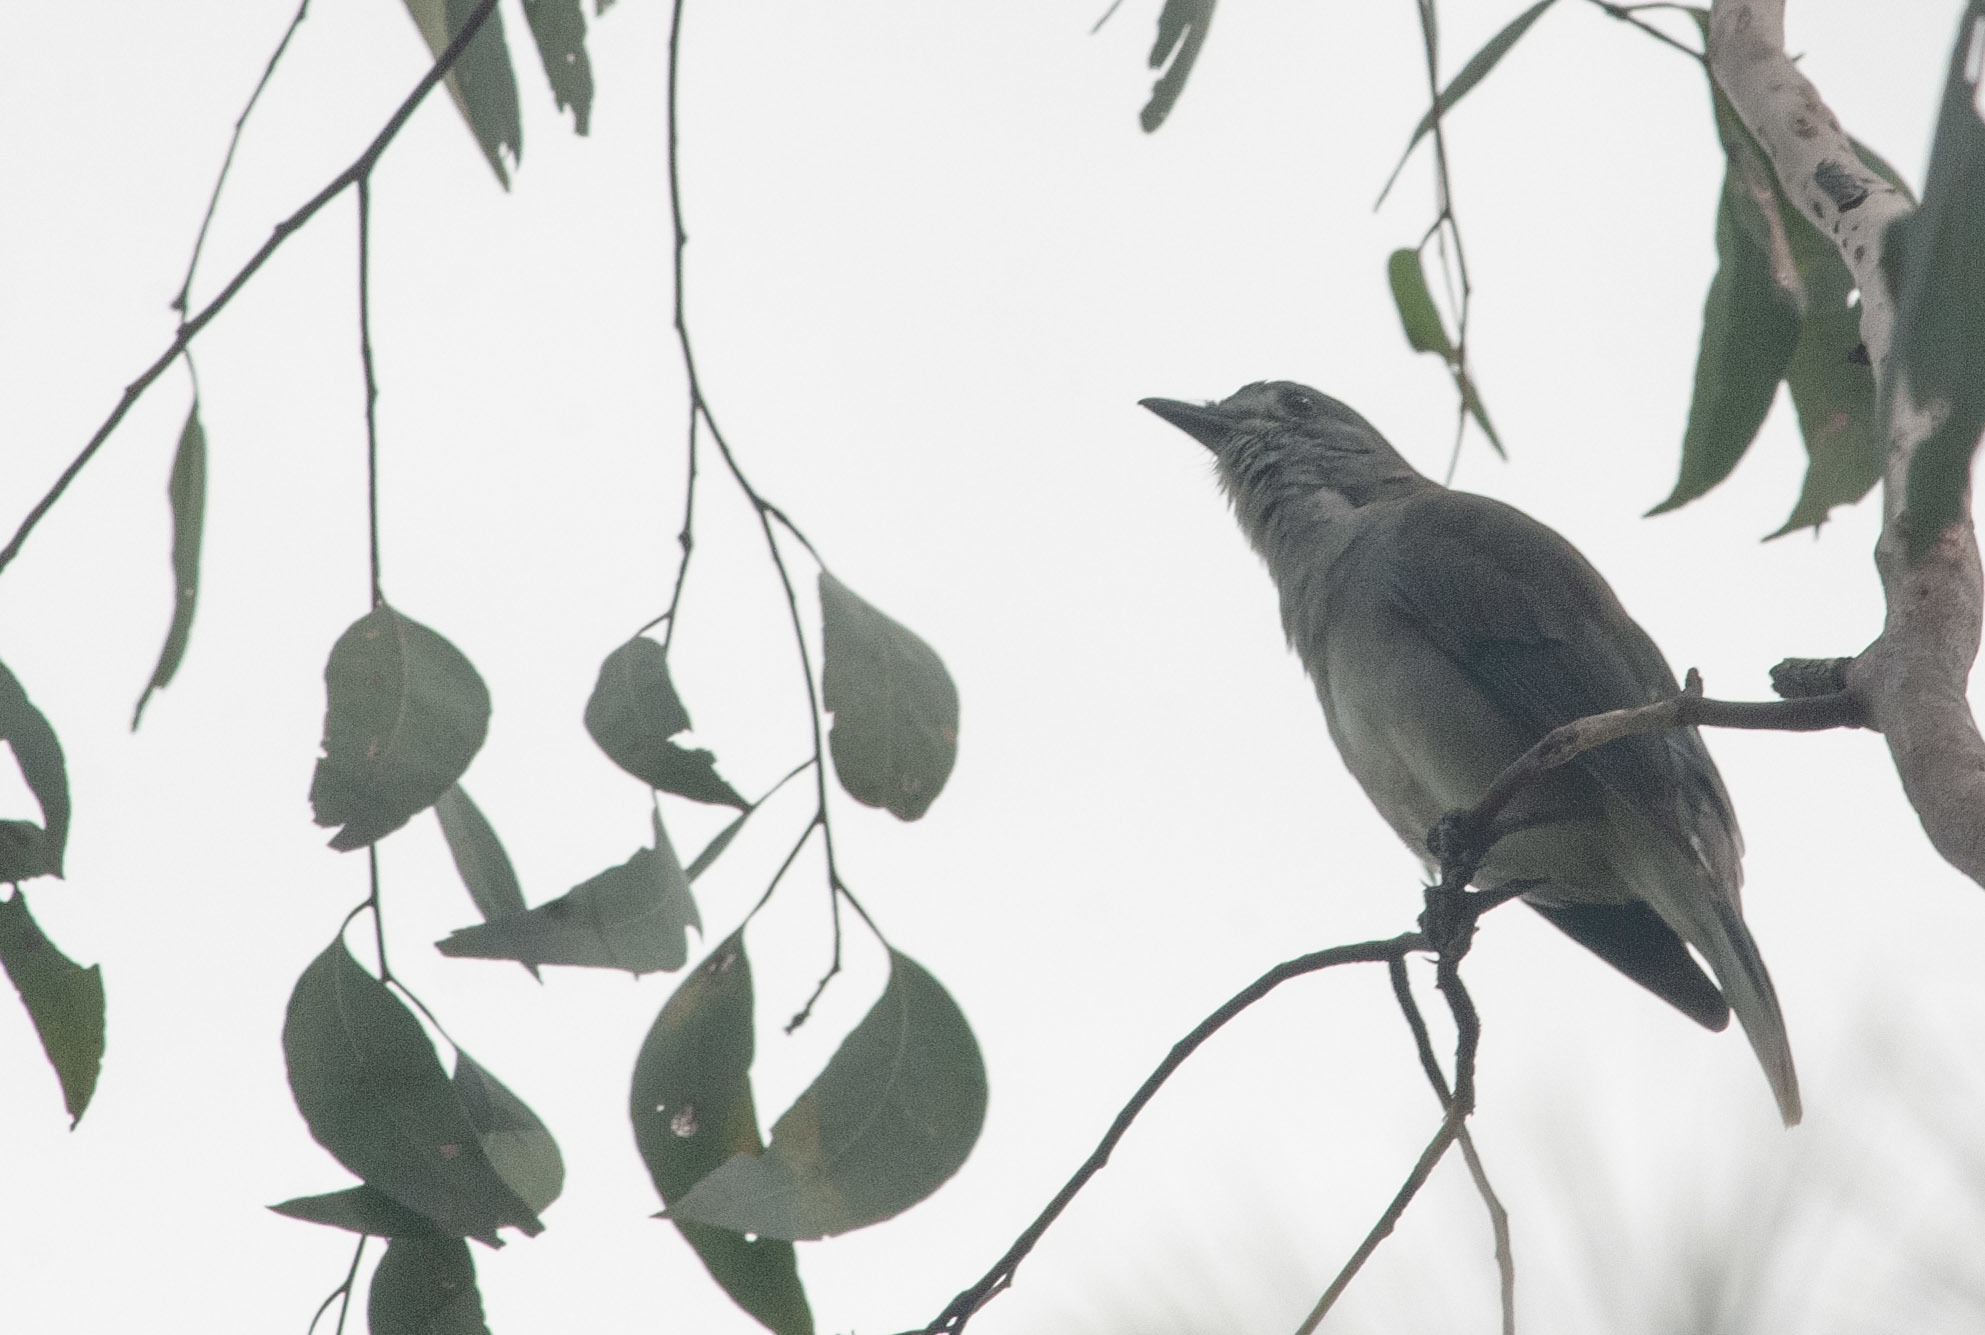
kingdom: Animalia
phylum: Chordata
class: Aves
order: Passeriformes
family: Pachycephalidae
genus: Colluricincla
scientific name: Colluricincla harmonica
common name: Grey shrikethrush
